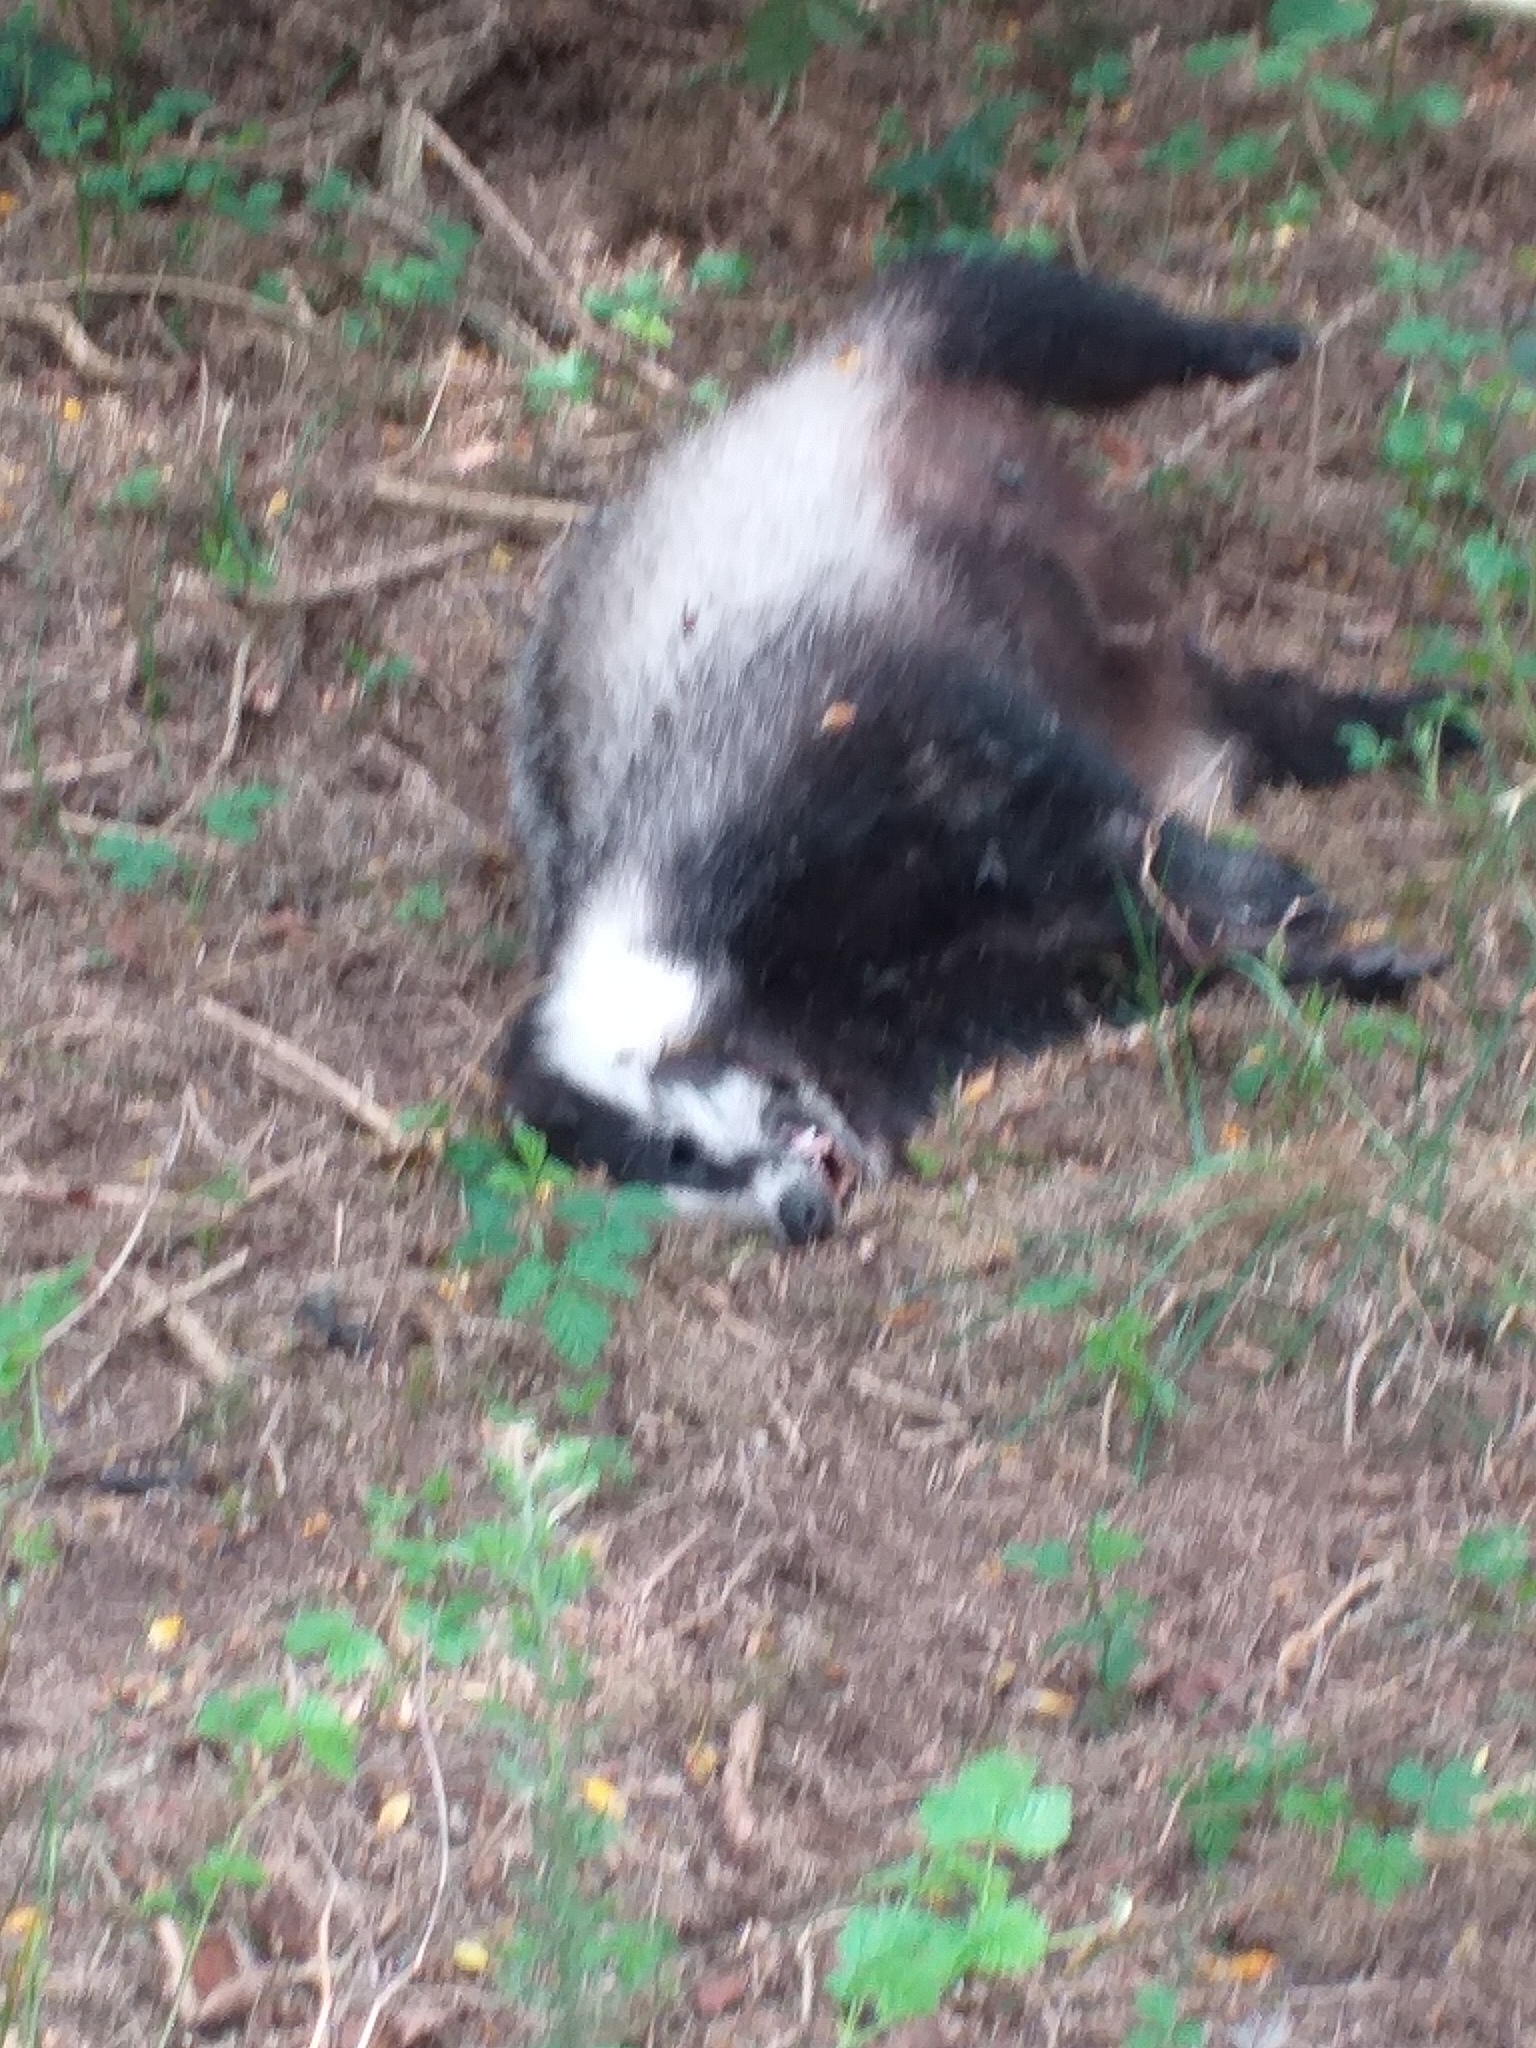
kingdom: Animalia
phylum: Chordata
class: Mammalia
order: Carnivora
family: Mustelidae
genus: Meles
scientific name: Meles meles
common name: Eurasian badger
